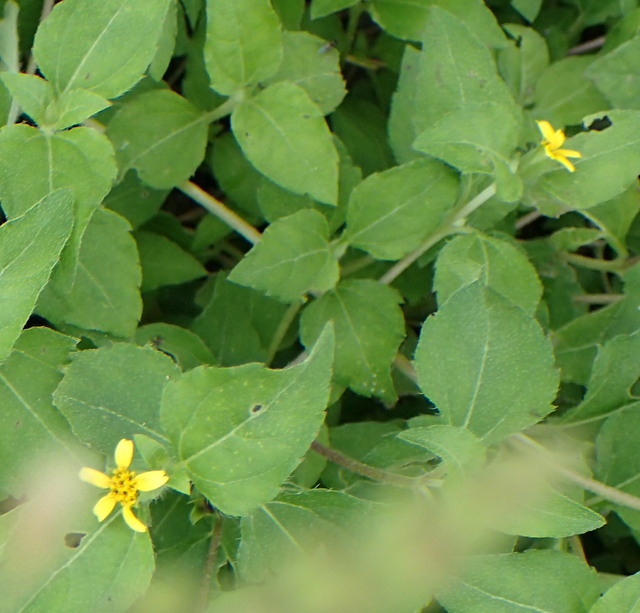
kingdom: Plantae
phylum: Tracheophyta
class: Magnoliopsida
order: Asterales
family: Asteraceae
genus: Calyptocarpus
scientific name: Calyptocarpus vialis
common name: Straggler daisy
